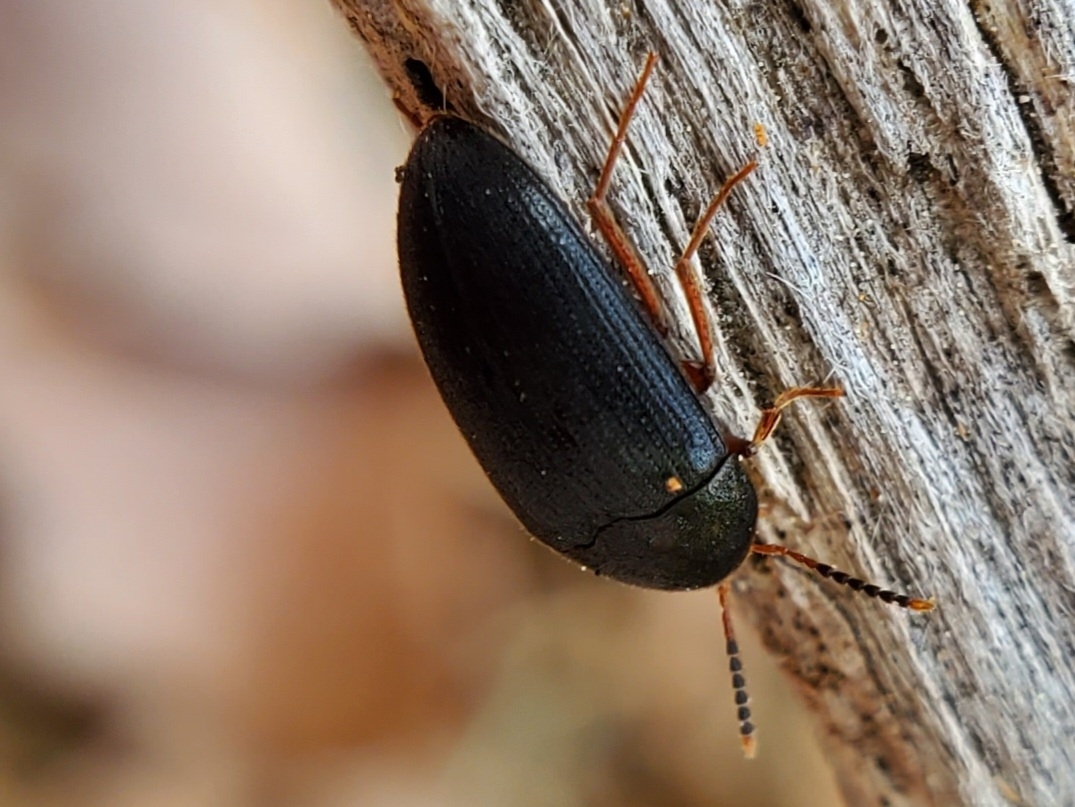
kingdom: Animalia
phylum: Arthropoda
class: Insecta
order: Coleoptera
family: Tetratomidae
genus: Eustrophopsis
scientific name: Eustrophopsis bicolor
